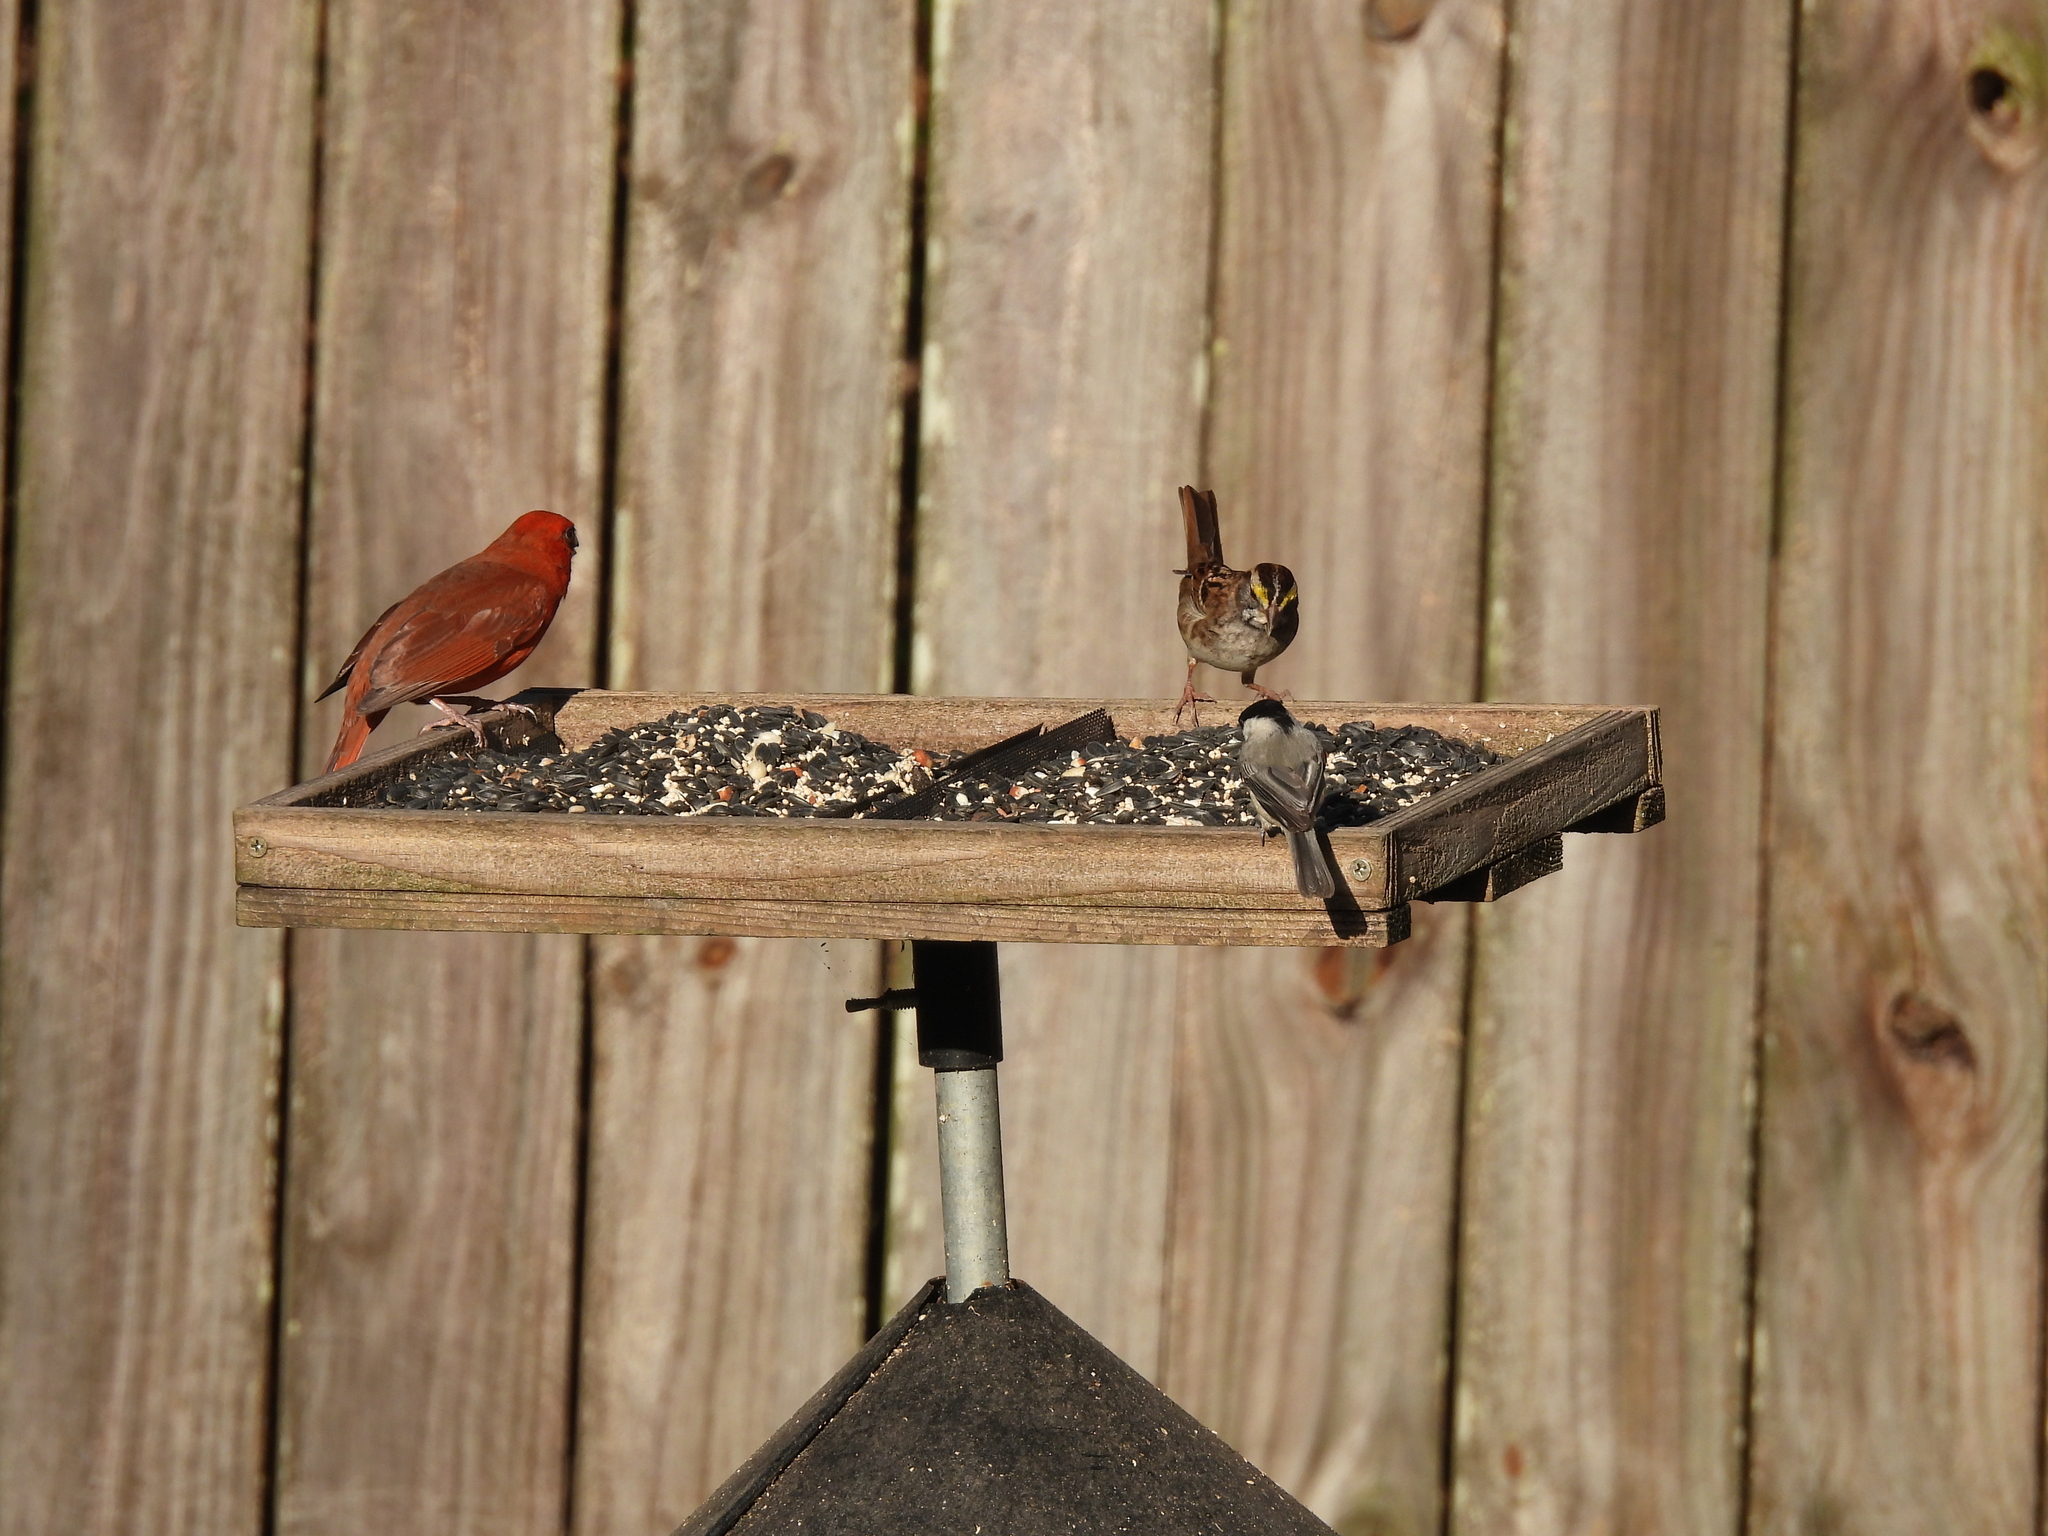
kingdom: Animalia
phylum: Chordata
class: Aves
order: Passeriformes
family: Paridae
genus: Poecile
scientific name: Poecile carolinensis
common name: Carolina chickadee
